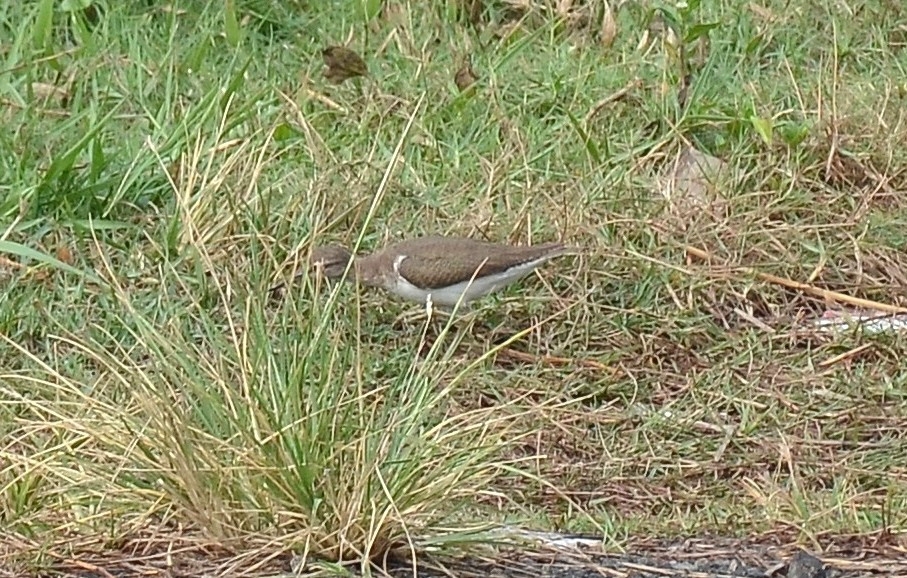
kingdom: Animalia
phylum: Chordata
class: Aves
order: Charadriiformes
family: Scolopacidae
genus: Actitis
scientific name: Actitis hypoleucos
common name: Common sandpiper
